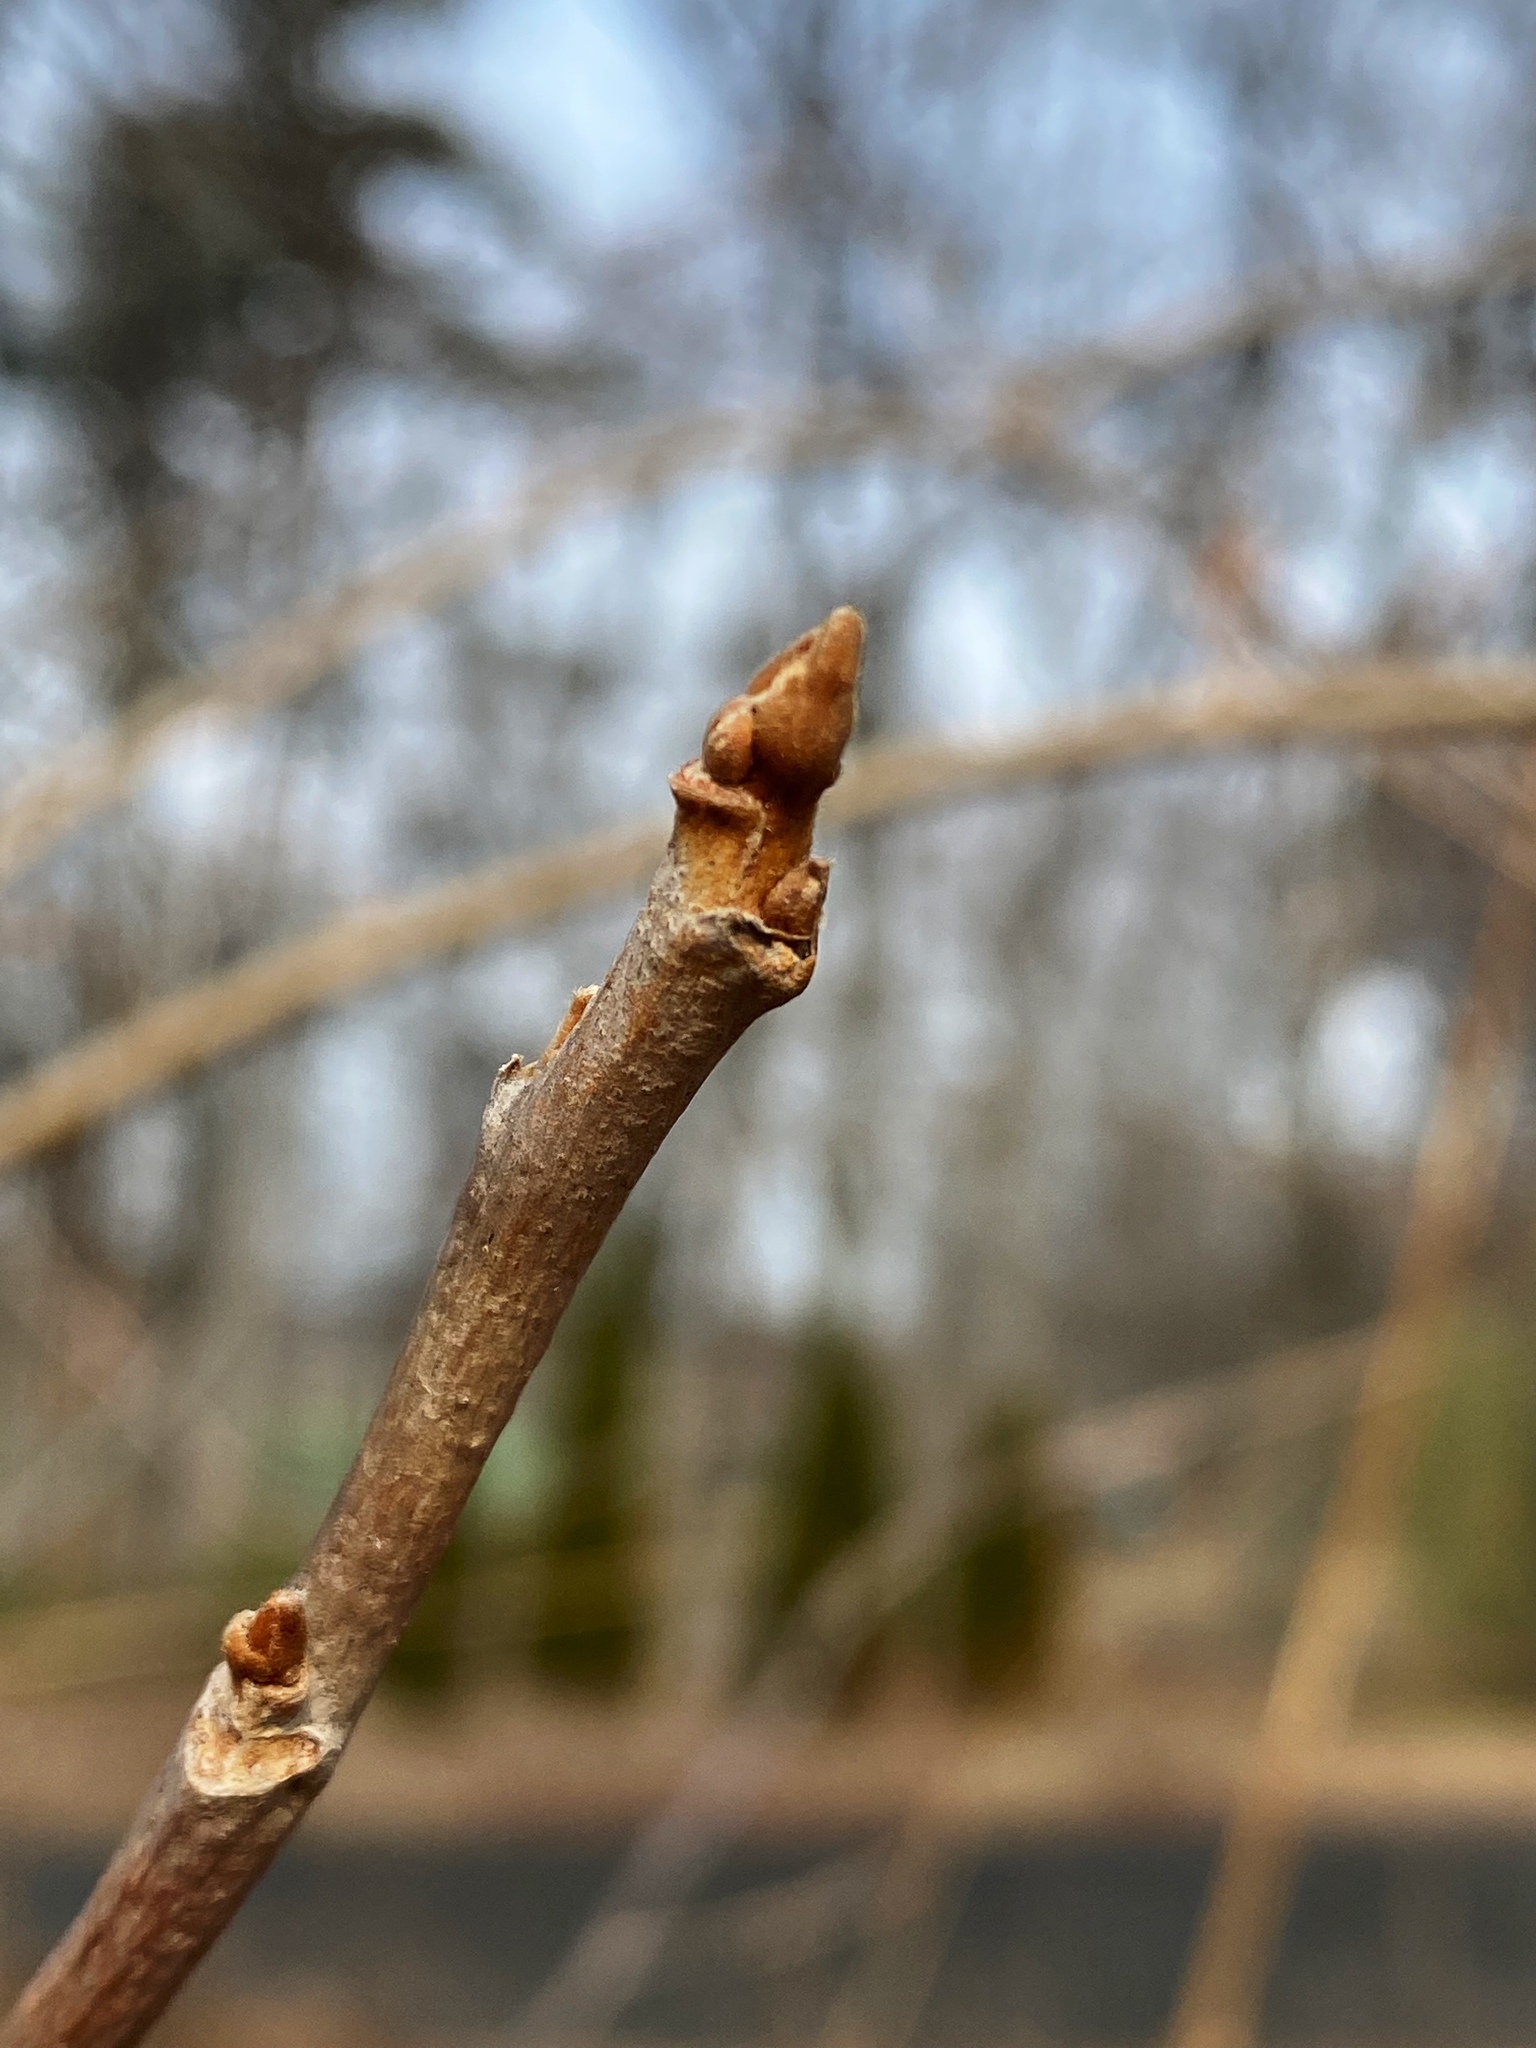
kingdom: Plantae
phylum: Tracheophyta
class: Magnoliopsida
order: Sapindales
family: Anacardiaceae
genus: Toxicodendron
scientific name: Toxicodendron radicans
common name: Poison ivy
